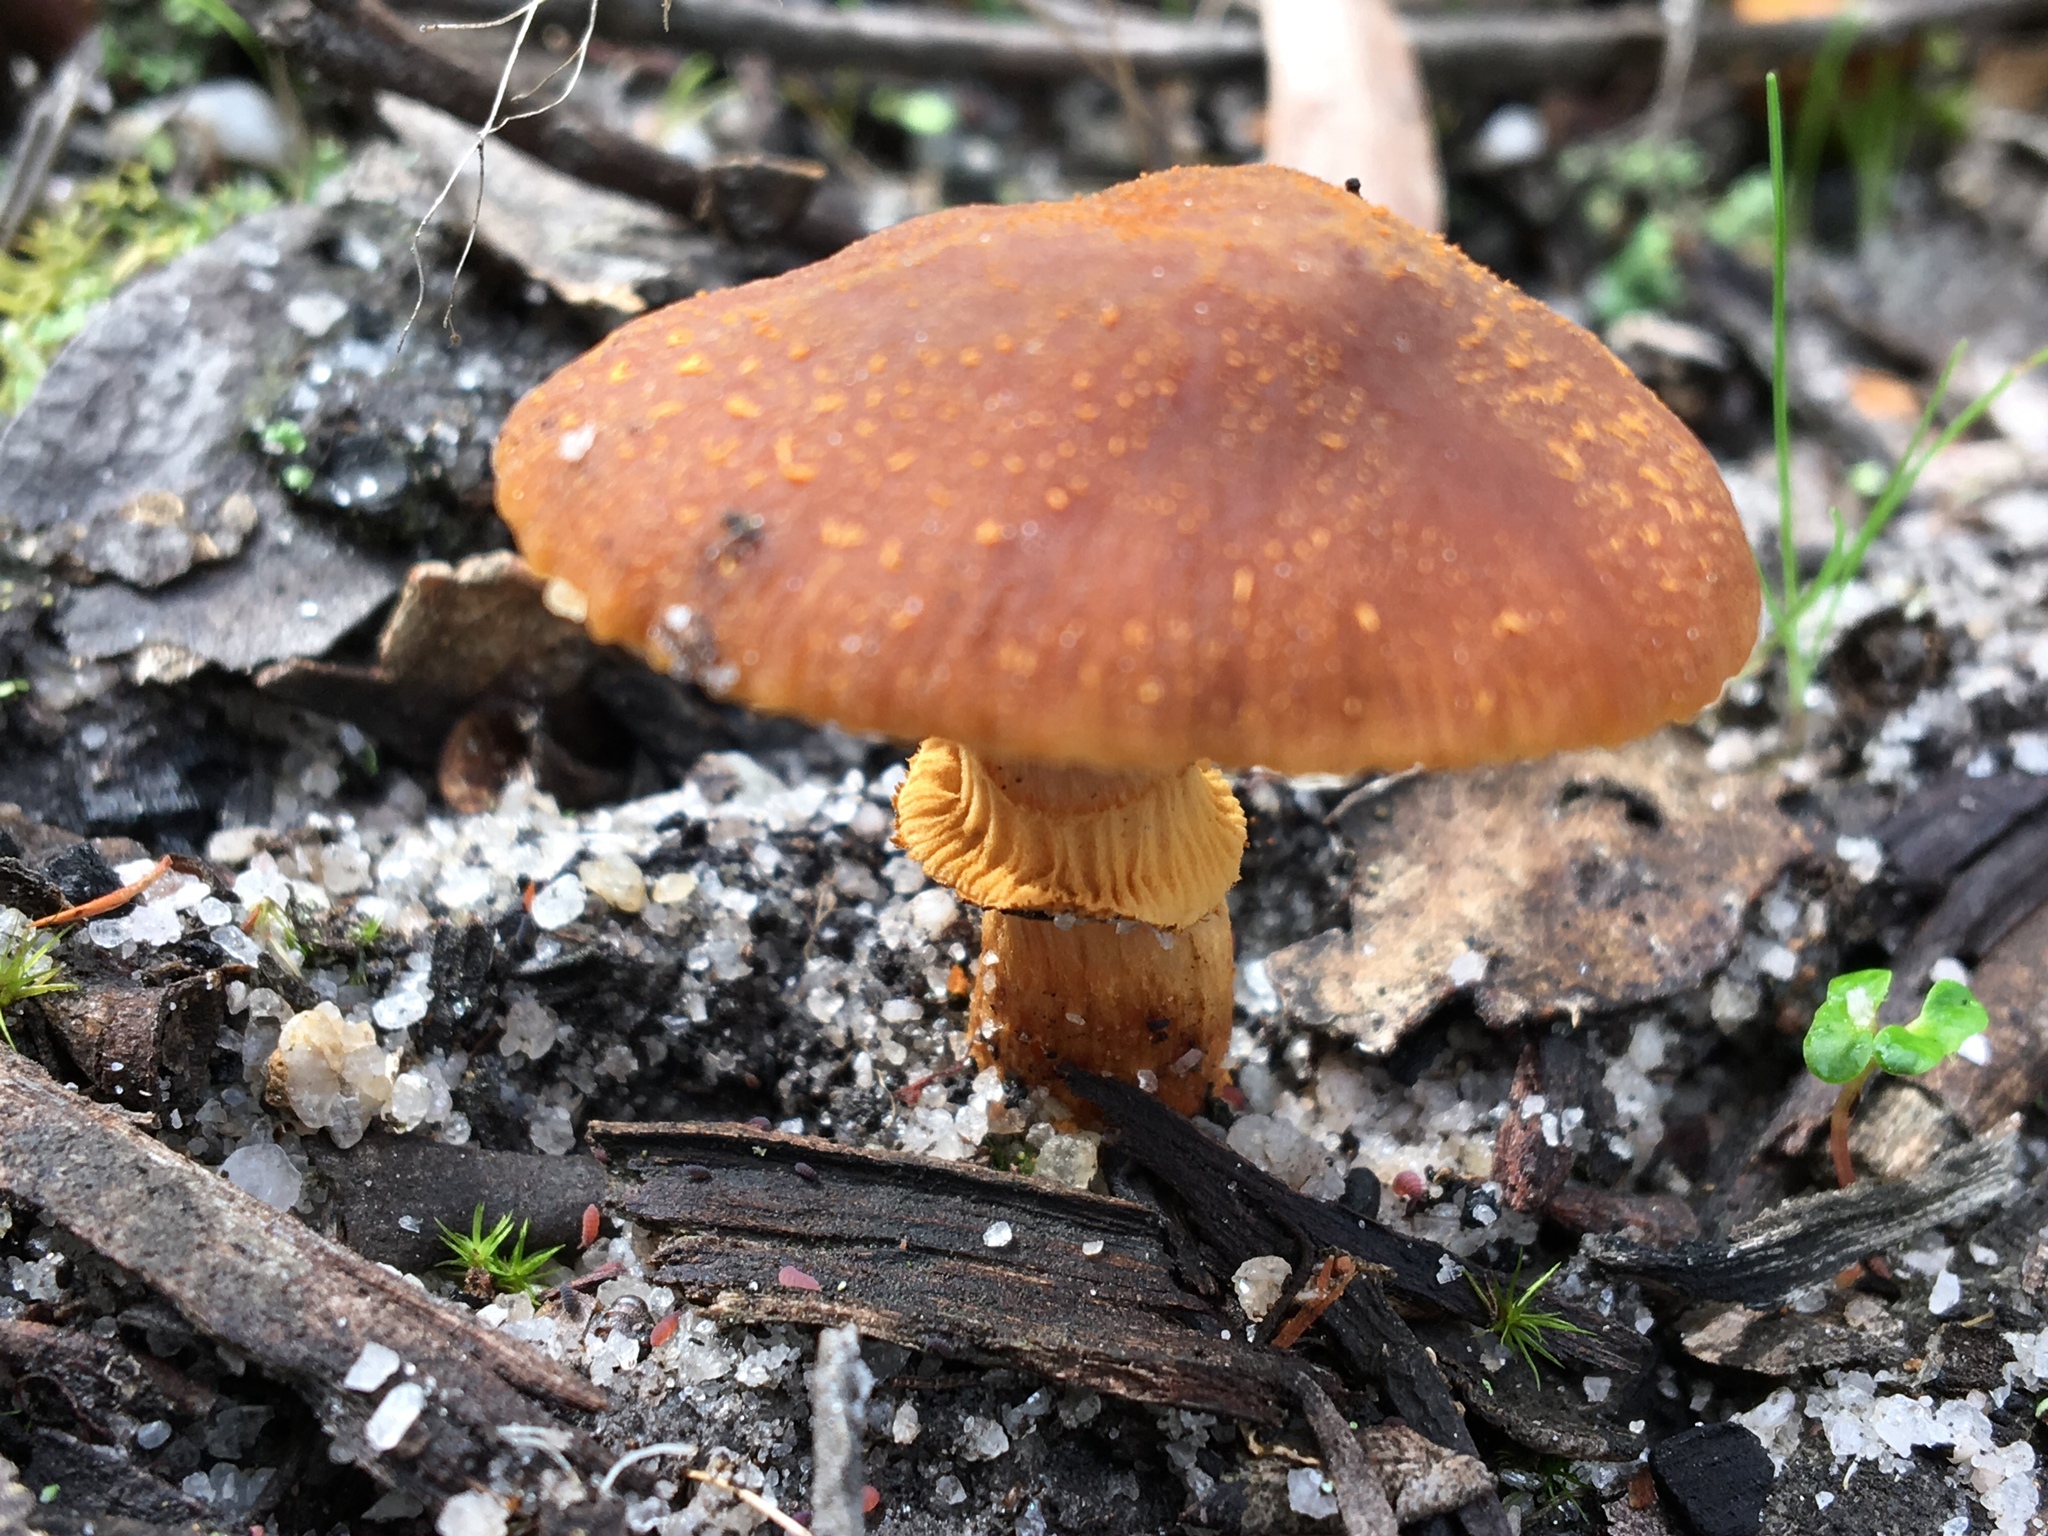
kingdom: Fungi
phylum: Basidiomycota
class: Agaricomycetes
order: Agaricales
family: Bolbitiaceae
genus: Descolea
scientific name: Descolea recedens
